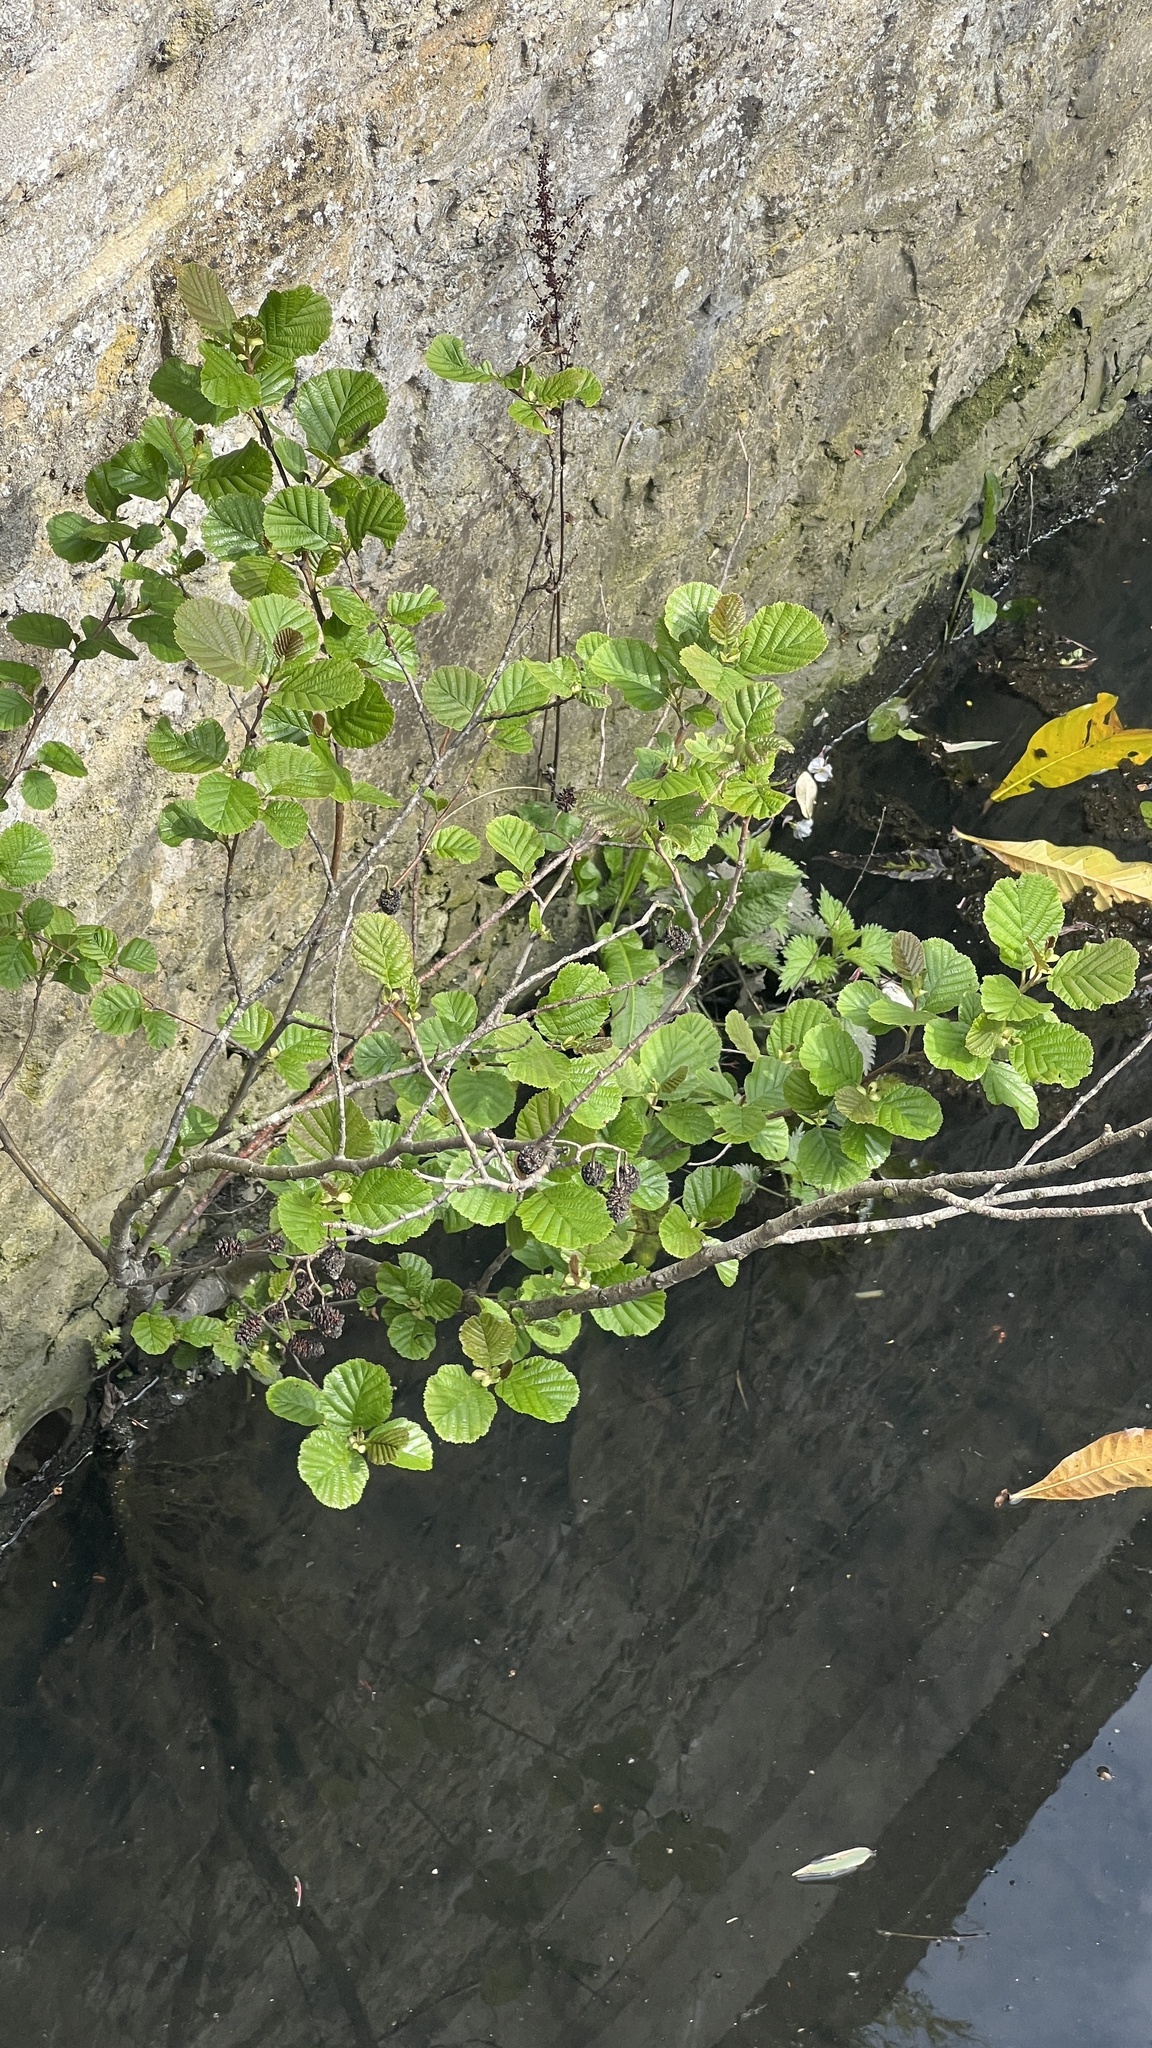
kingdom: Plantae
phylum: Tracheophyta
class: Magnoliopsida
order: Fagales
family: Betulaceae
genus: Alnus
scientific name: Alnus glutinosa
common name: Black alder
